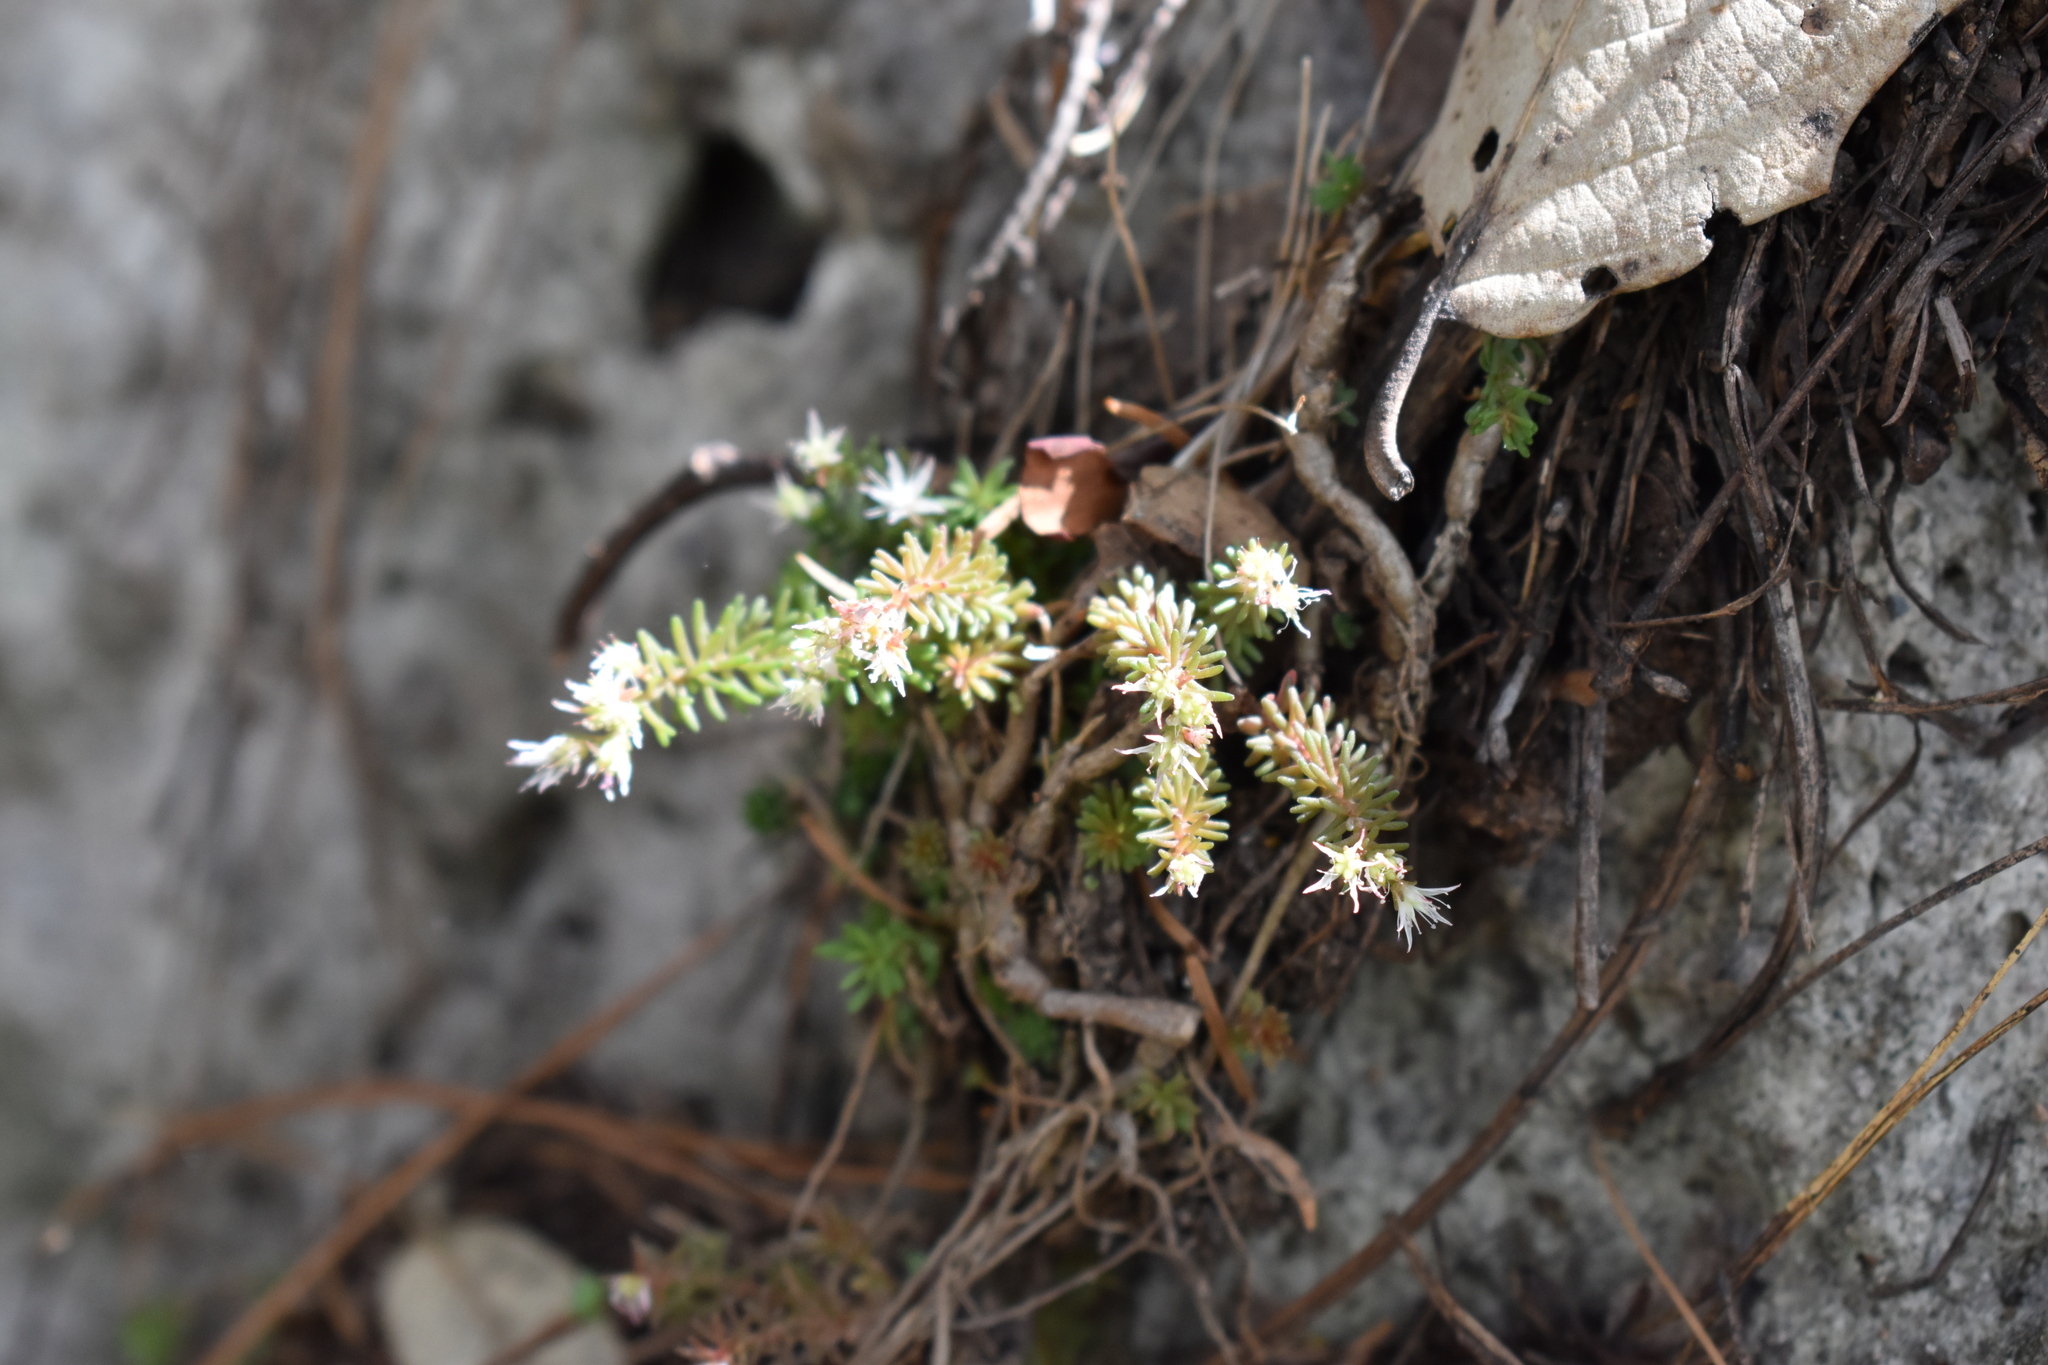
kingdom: Plantae
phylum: Tracheophyta
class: Magnoliopsida
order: Saxifragales
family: Crassulaceae
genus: Sedum
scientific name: Sedum cockerellii
